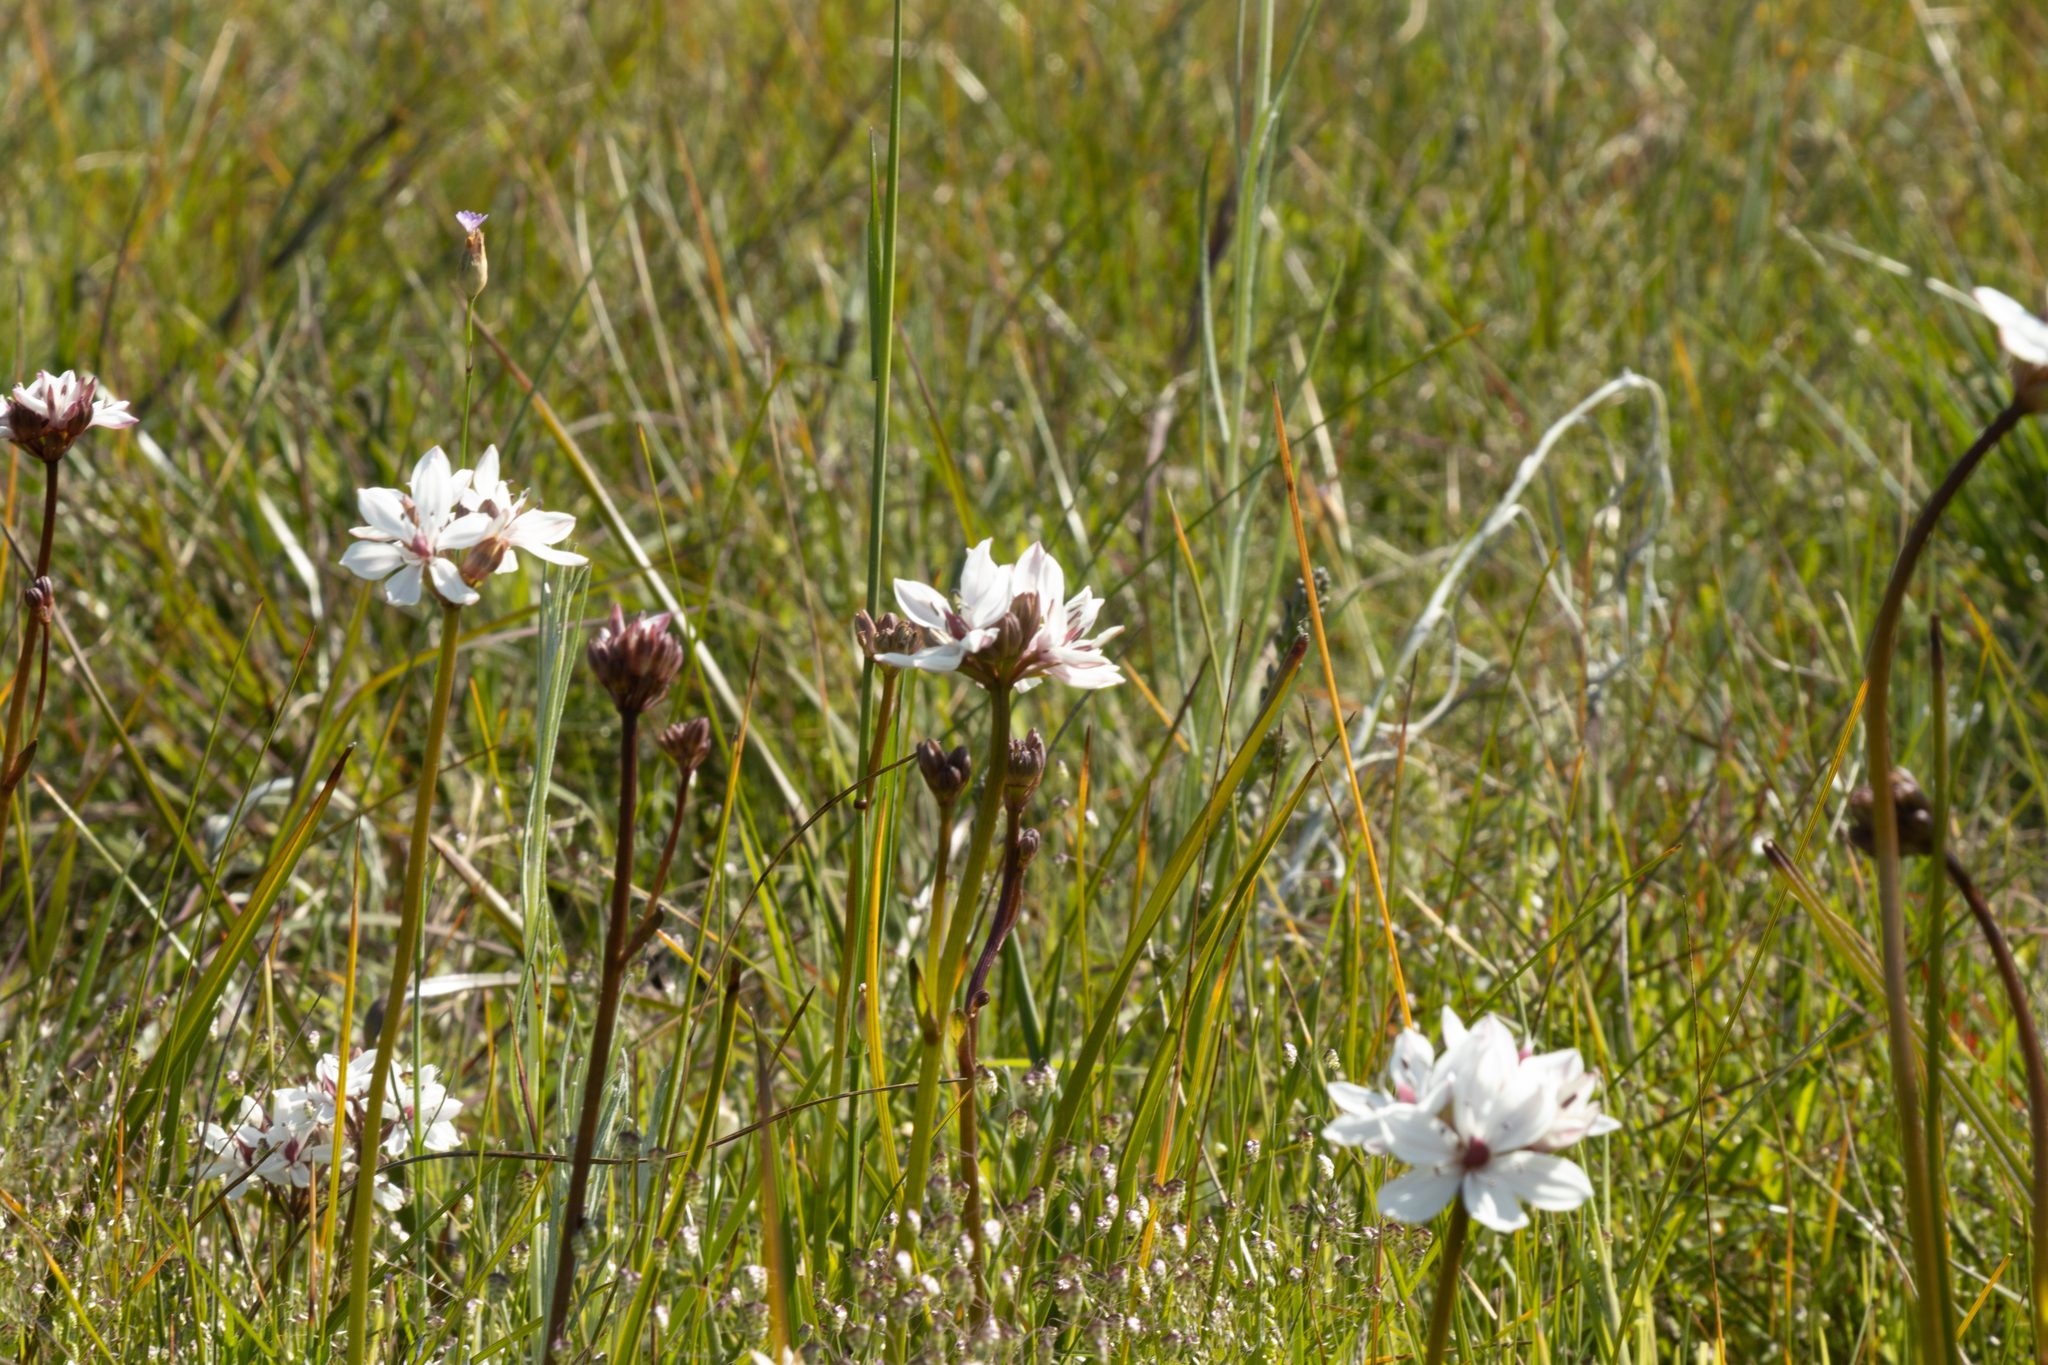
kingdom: Plantae
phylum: Tracheophyta
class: Liliopsida
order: Liliales
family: Colchicaceae
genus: Burchardia
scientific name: Burchardia umbellata
